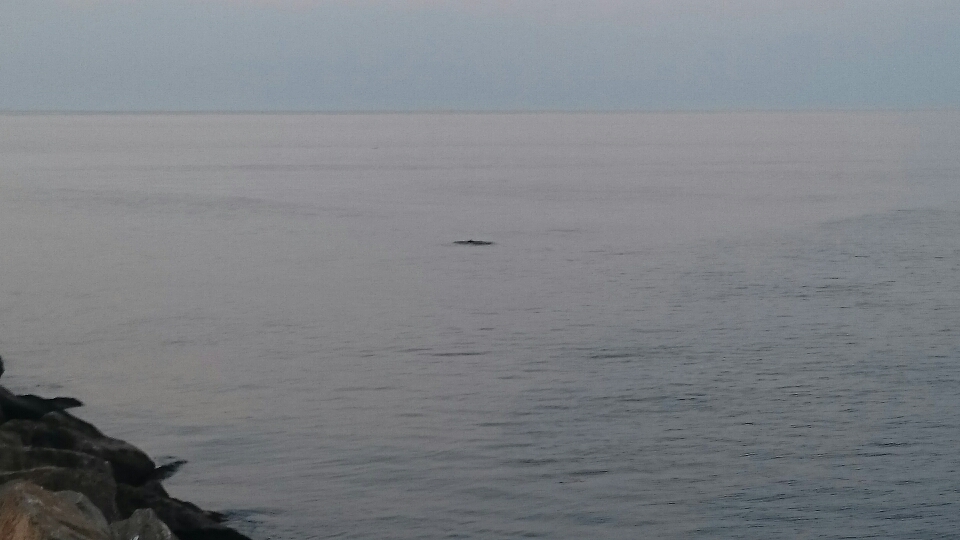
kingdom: Animalia
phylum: Chordata
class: Mammalia
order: Cetacea
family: Phocoenidae
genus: Phocoena
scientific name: Phocoena phocoena
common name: Harbor porpoise
